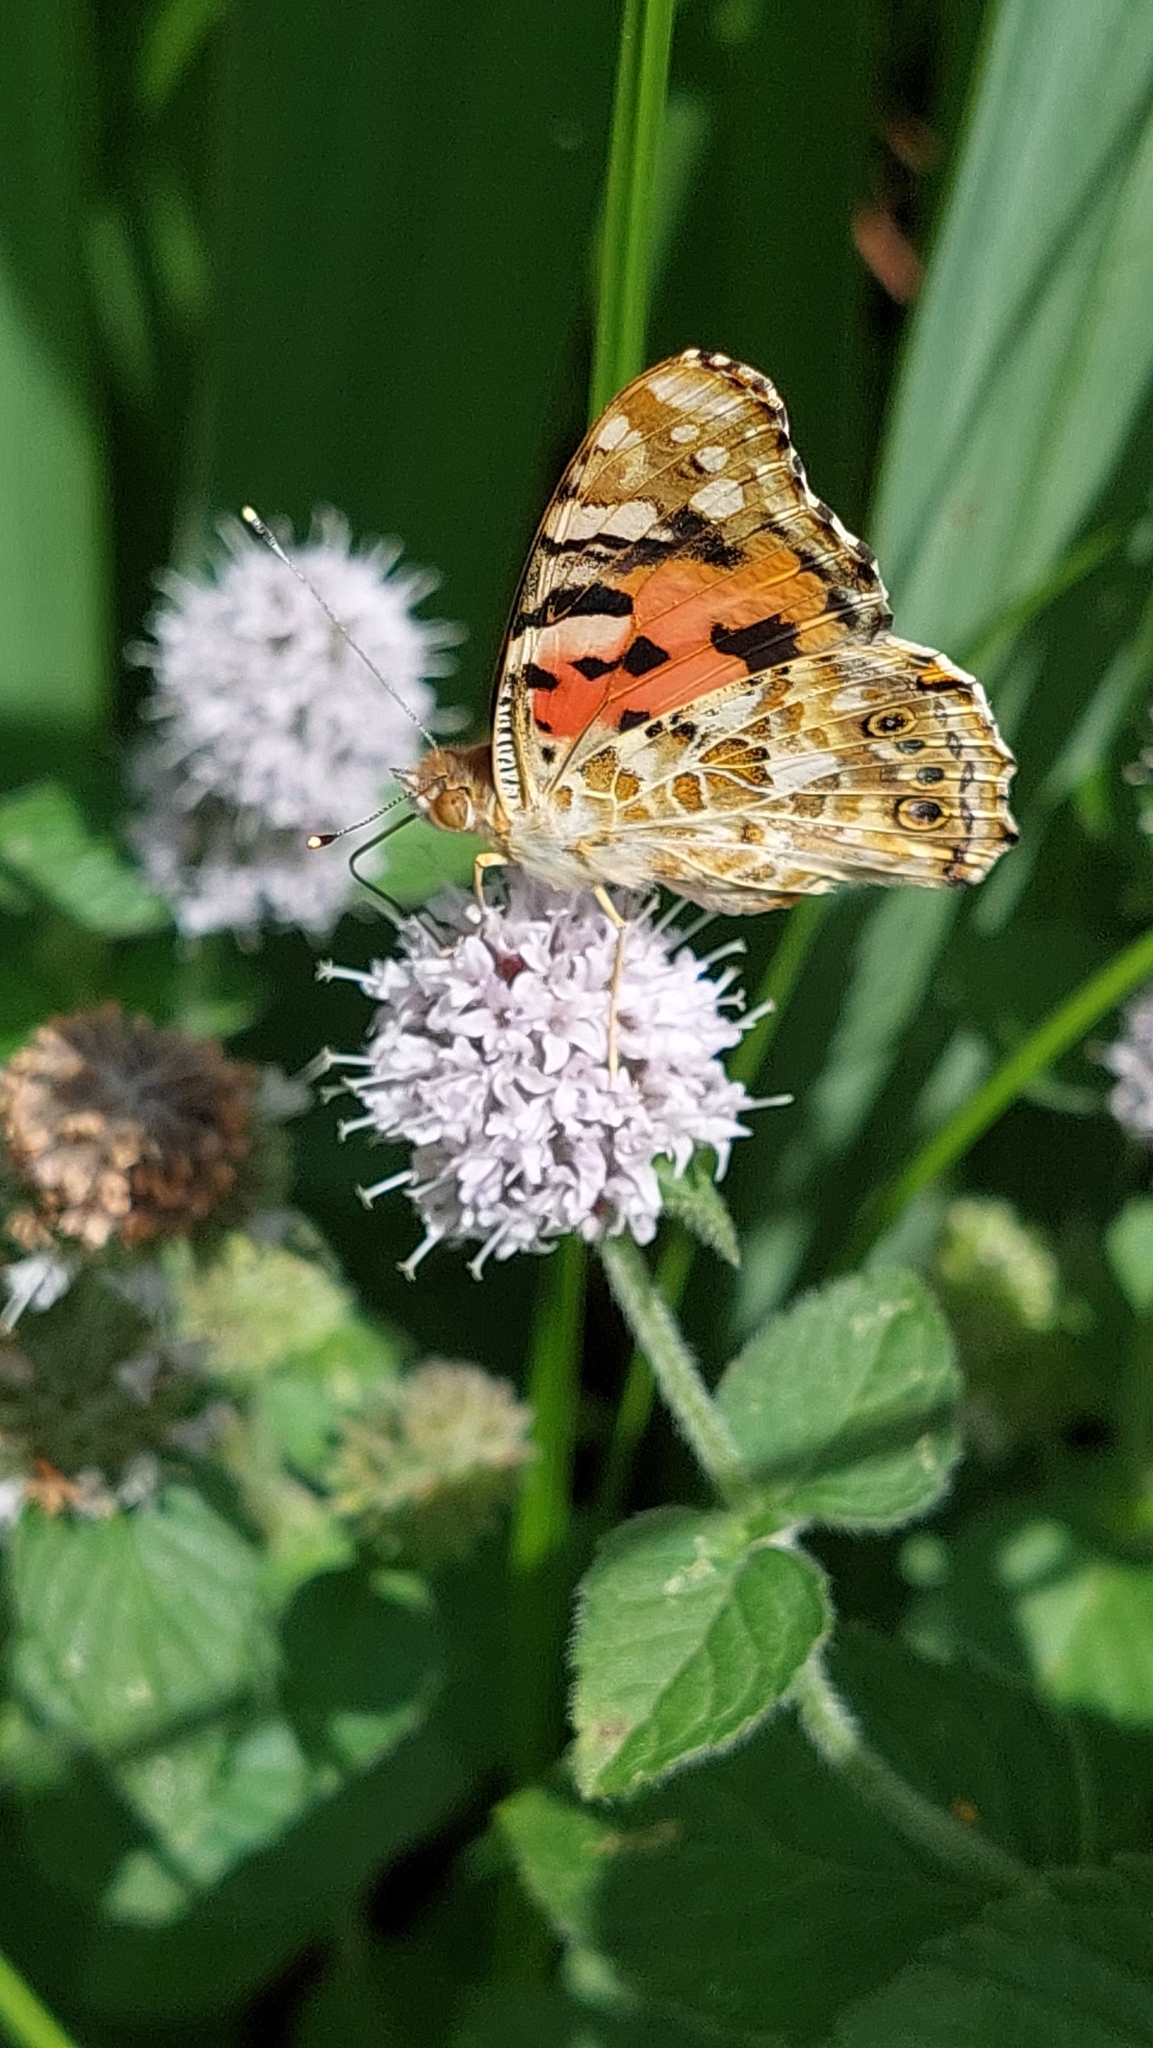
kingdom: Animalia
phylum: Arthropoda
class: Insecta
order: Lepidoptera
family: Nymphalidae
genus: Vanessa
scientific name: Vanessa cardui
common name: Painted lady
